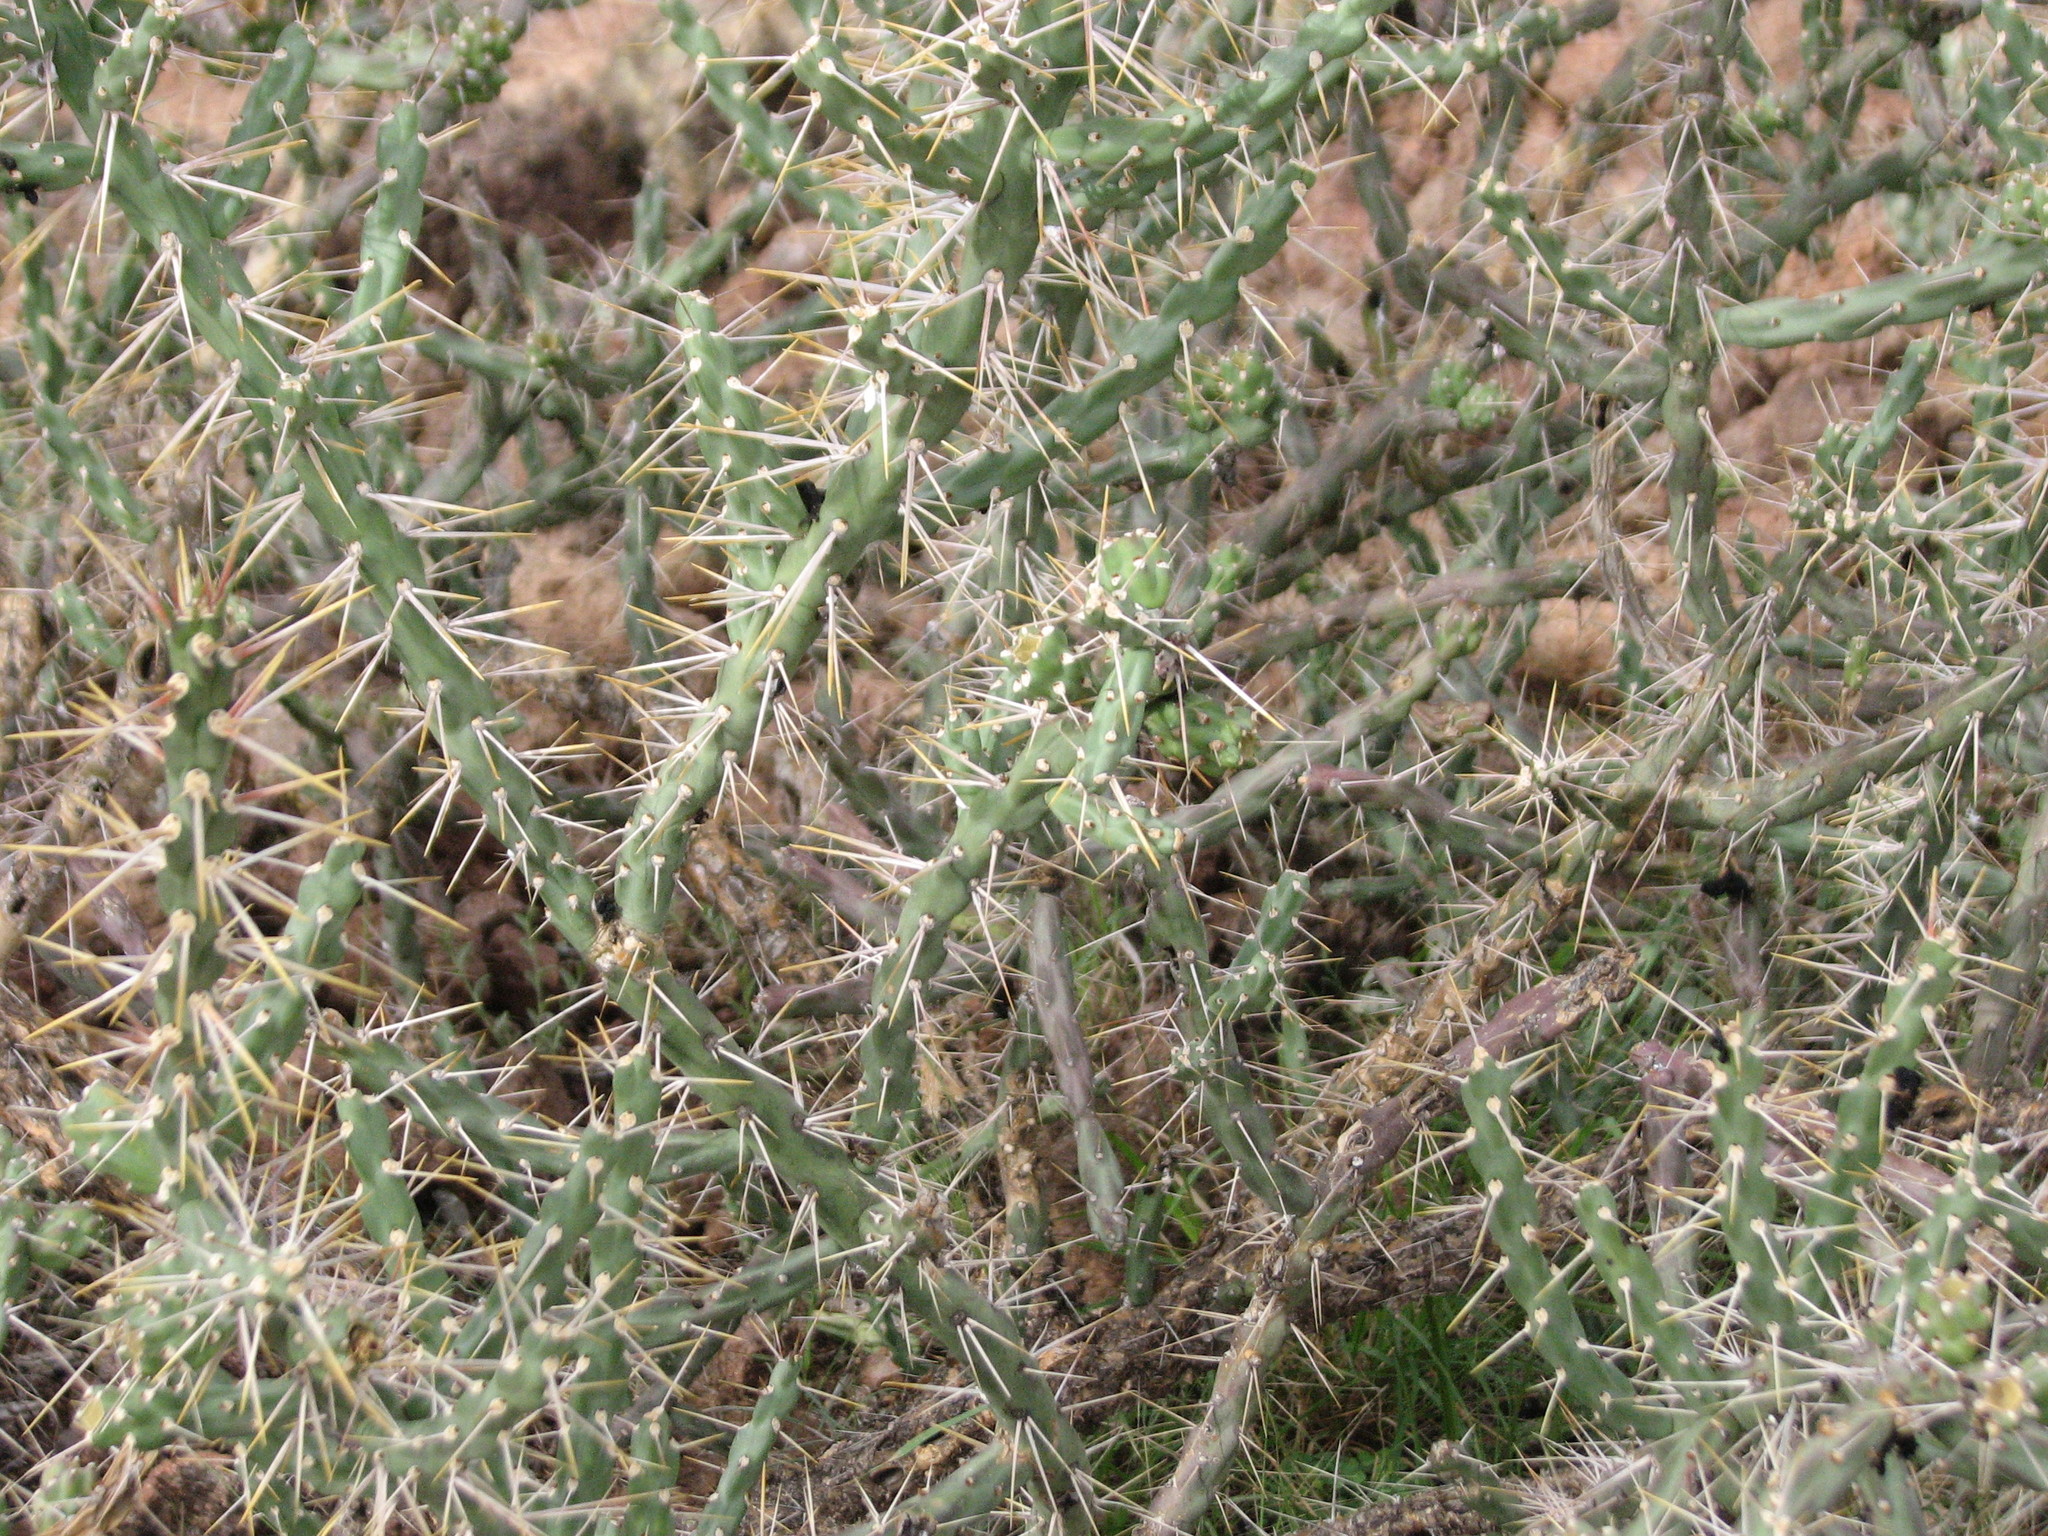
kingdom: Plantae
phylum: Tracheophyta
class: Magnoliopsida
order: Caryophyllales
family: Cactaceae
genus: Cylindropuntia
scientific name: Cylindropuntia kleiniae
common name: Klein's cholla
